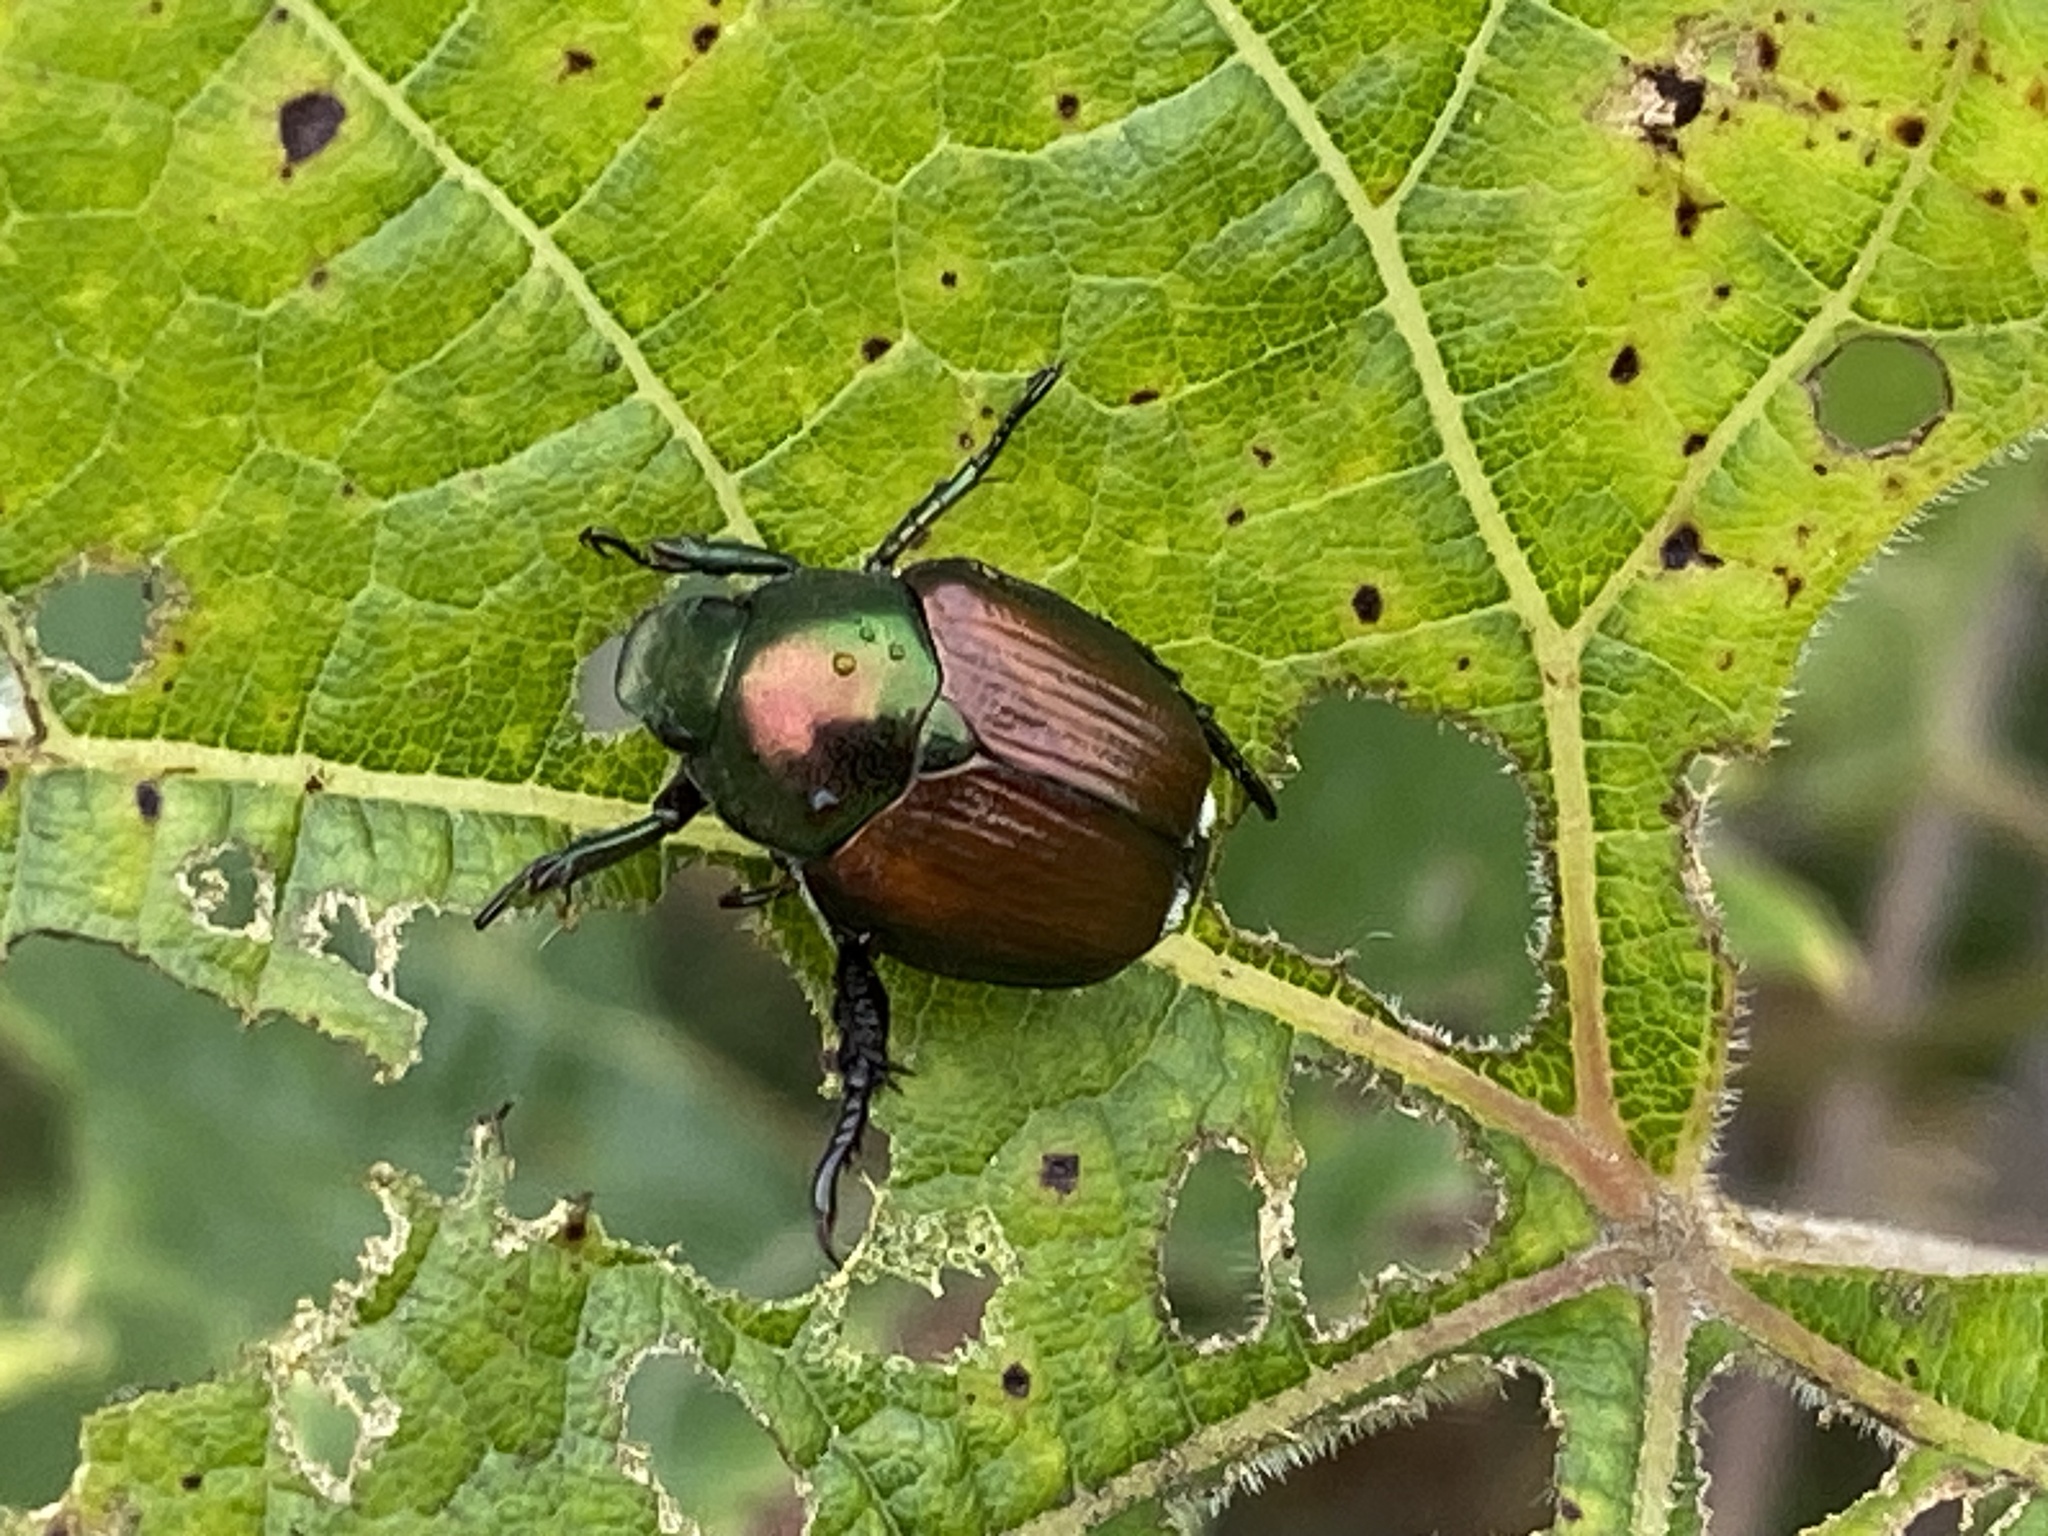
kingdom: Animalia
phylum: Arthropoda
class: Insecta
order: Coleoptera
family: Scarabaeidae
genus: Popillia
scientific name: Popillia japonica
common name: Japanese beetle
